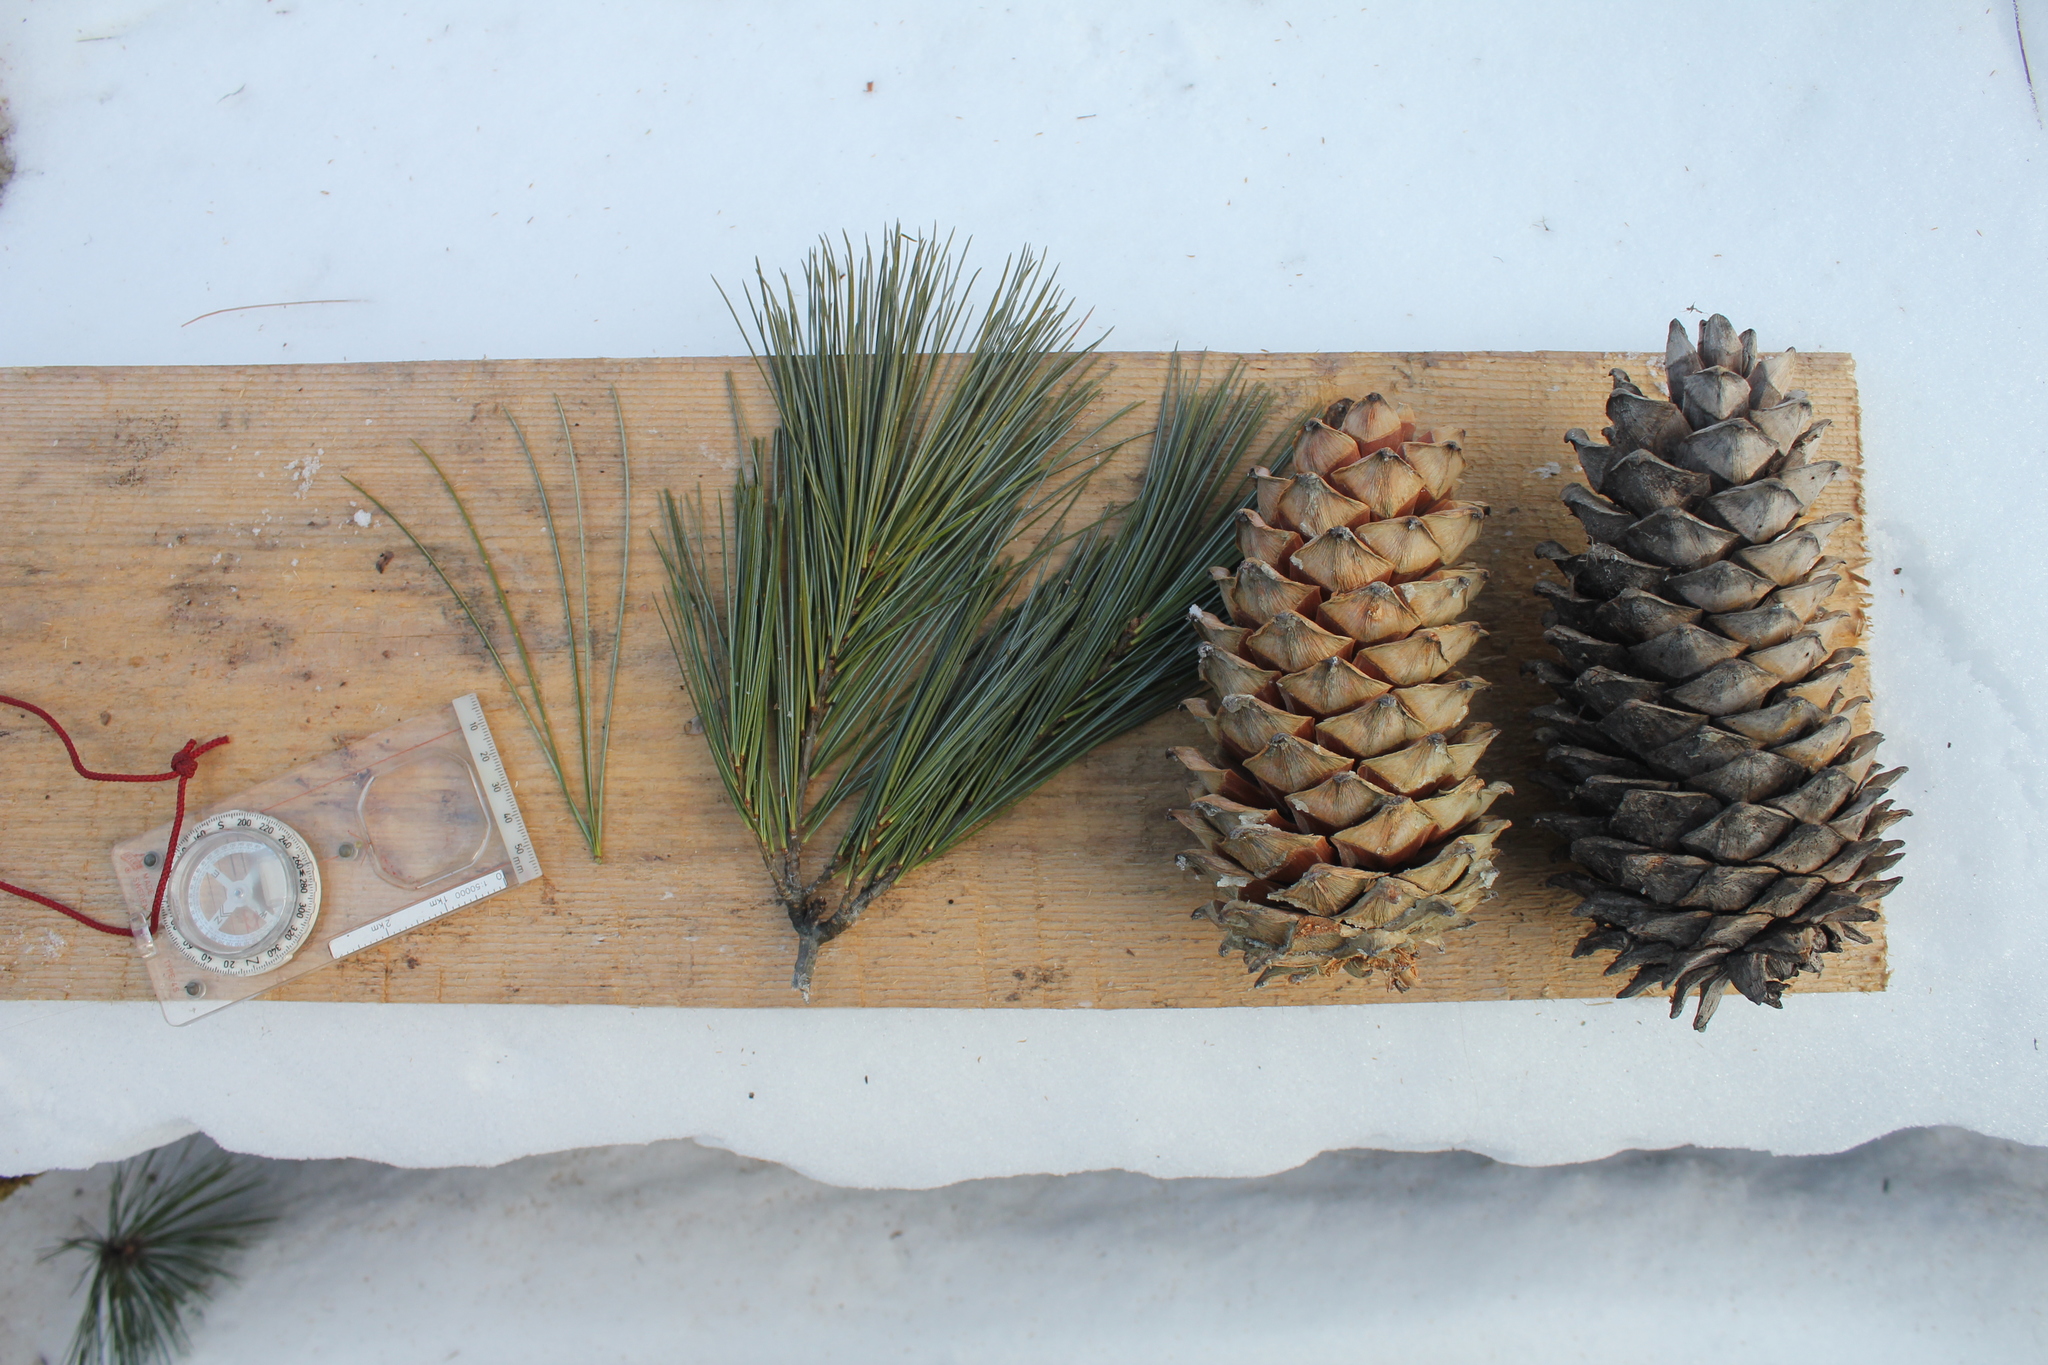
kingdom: Plantae
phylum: Tracheophyta
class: Pinopsida
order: Pinales
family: Pinaceae
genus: Pinus
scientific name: Pinus armandii
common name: Armand's pine
